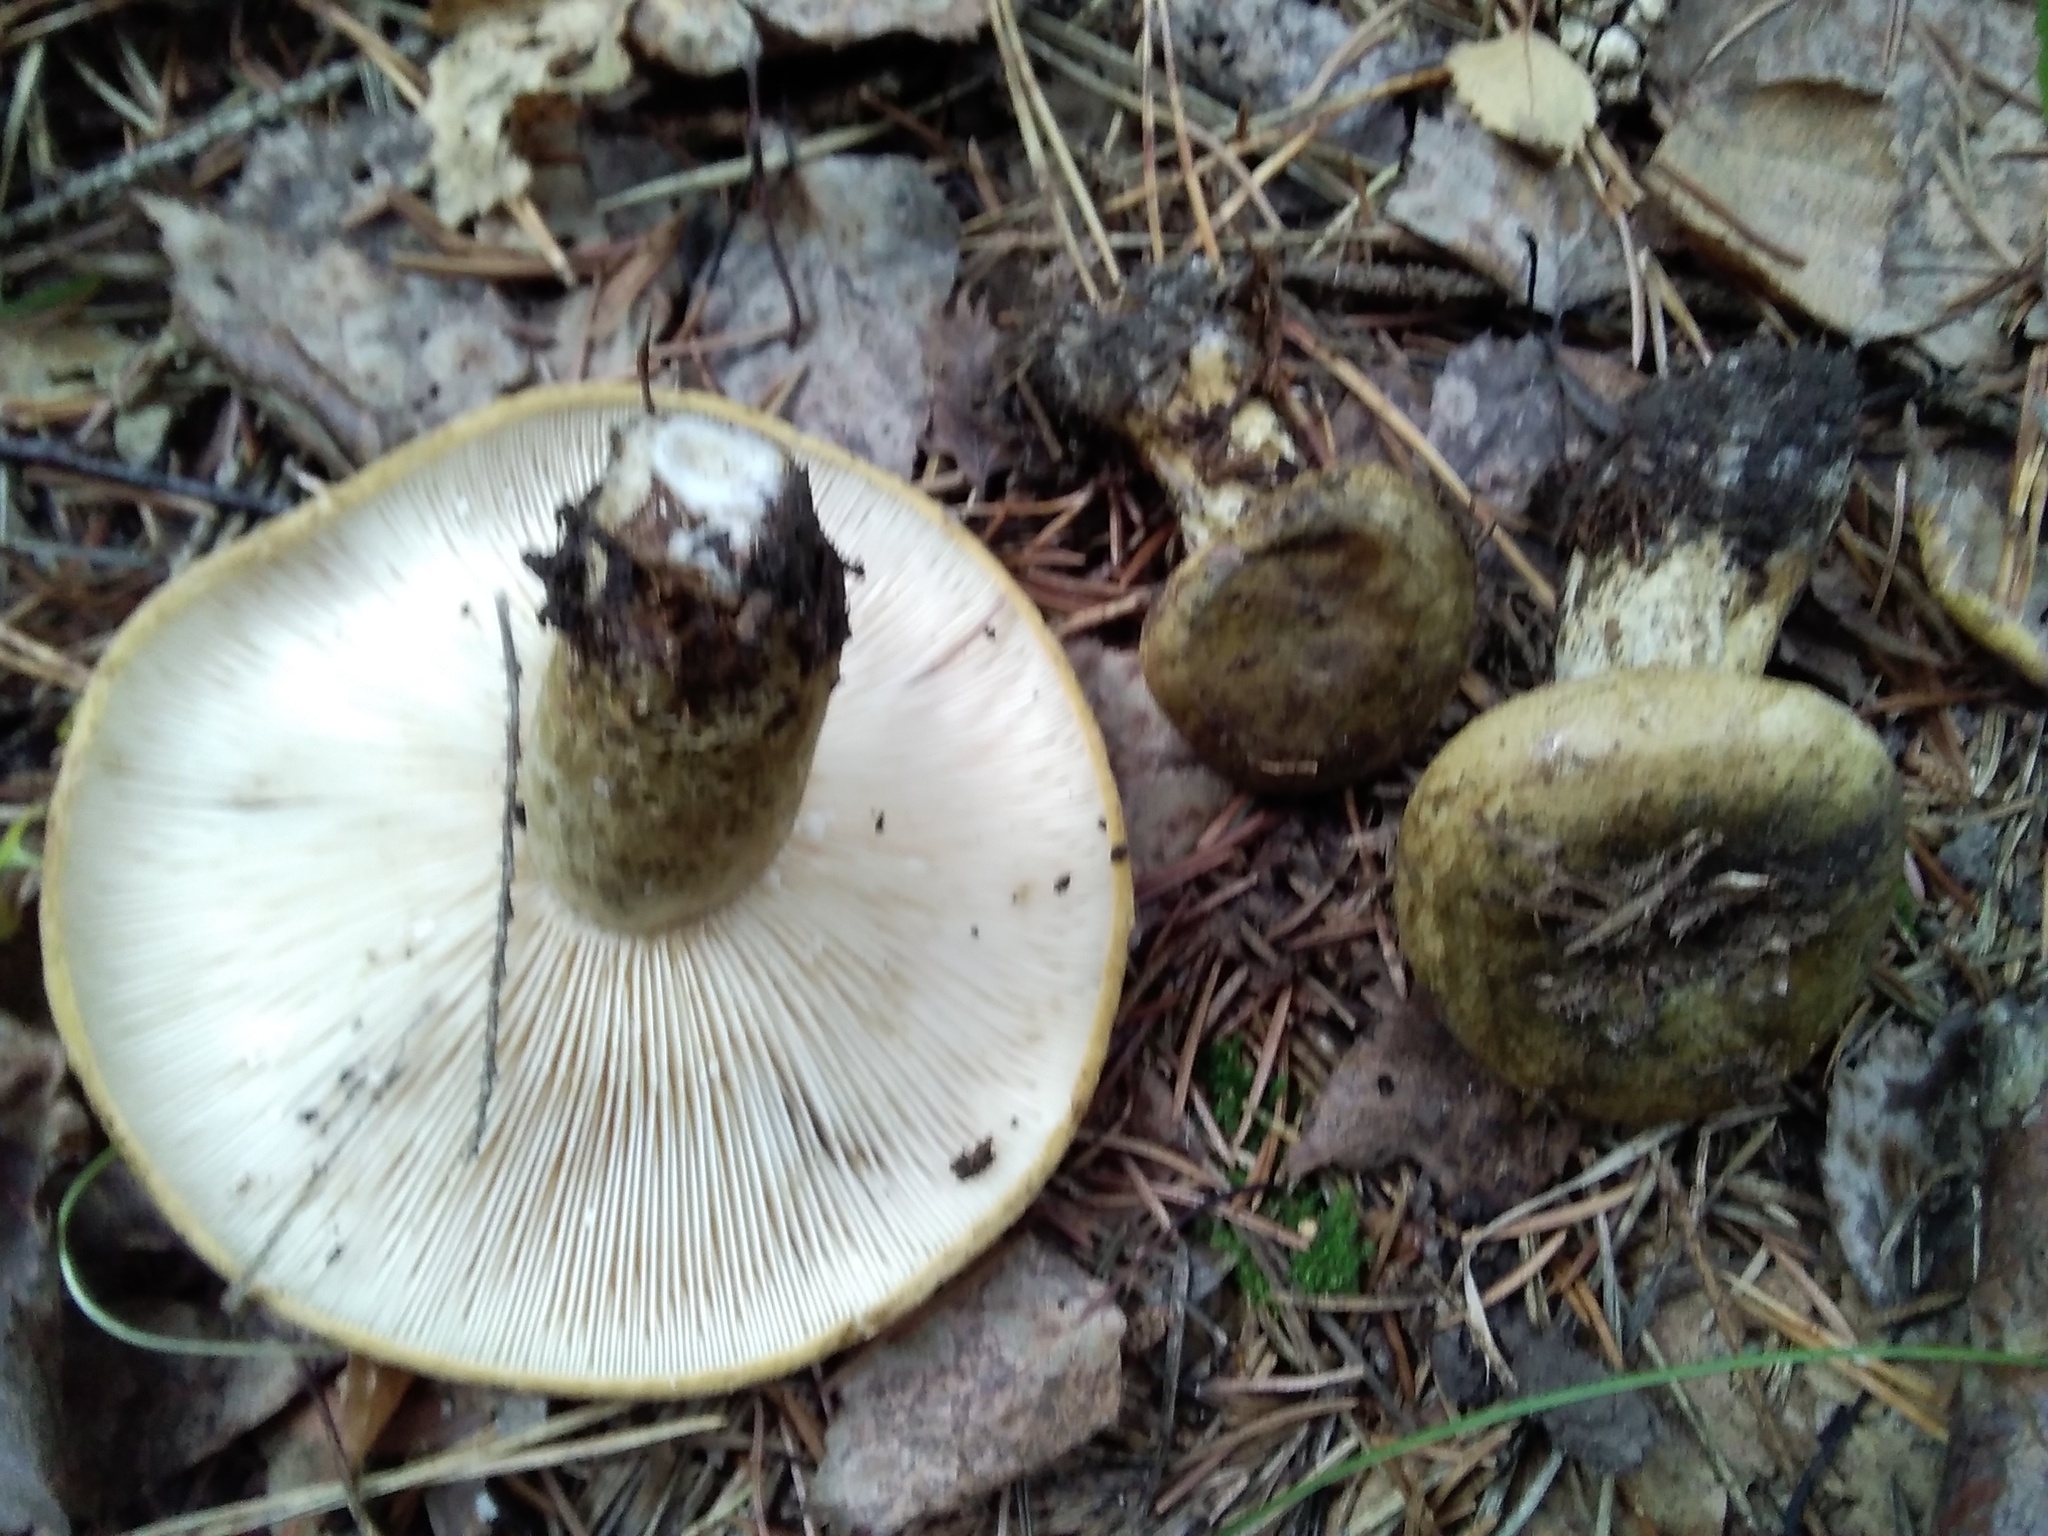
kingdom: Fungi
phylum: Basidiomycota
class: Agaricomycetes
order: Russulales
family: Russulaceae
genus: Lactarius
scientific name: Lactarius turpis
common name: Ugly milk-cap
